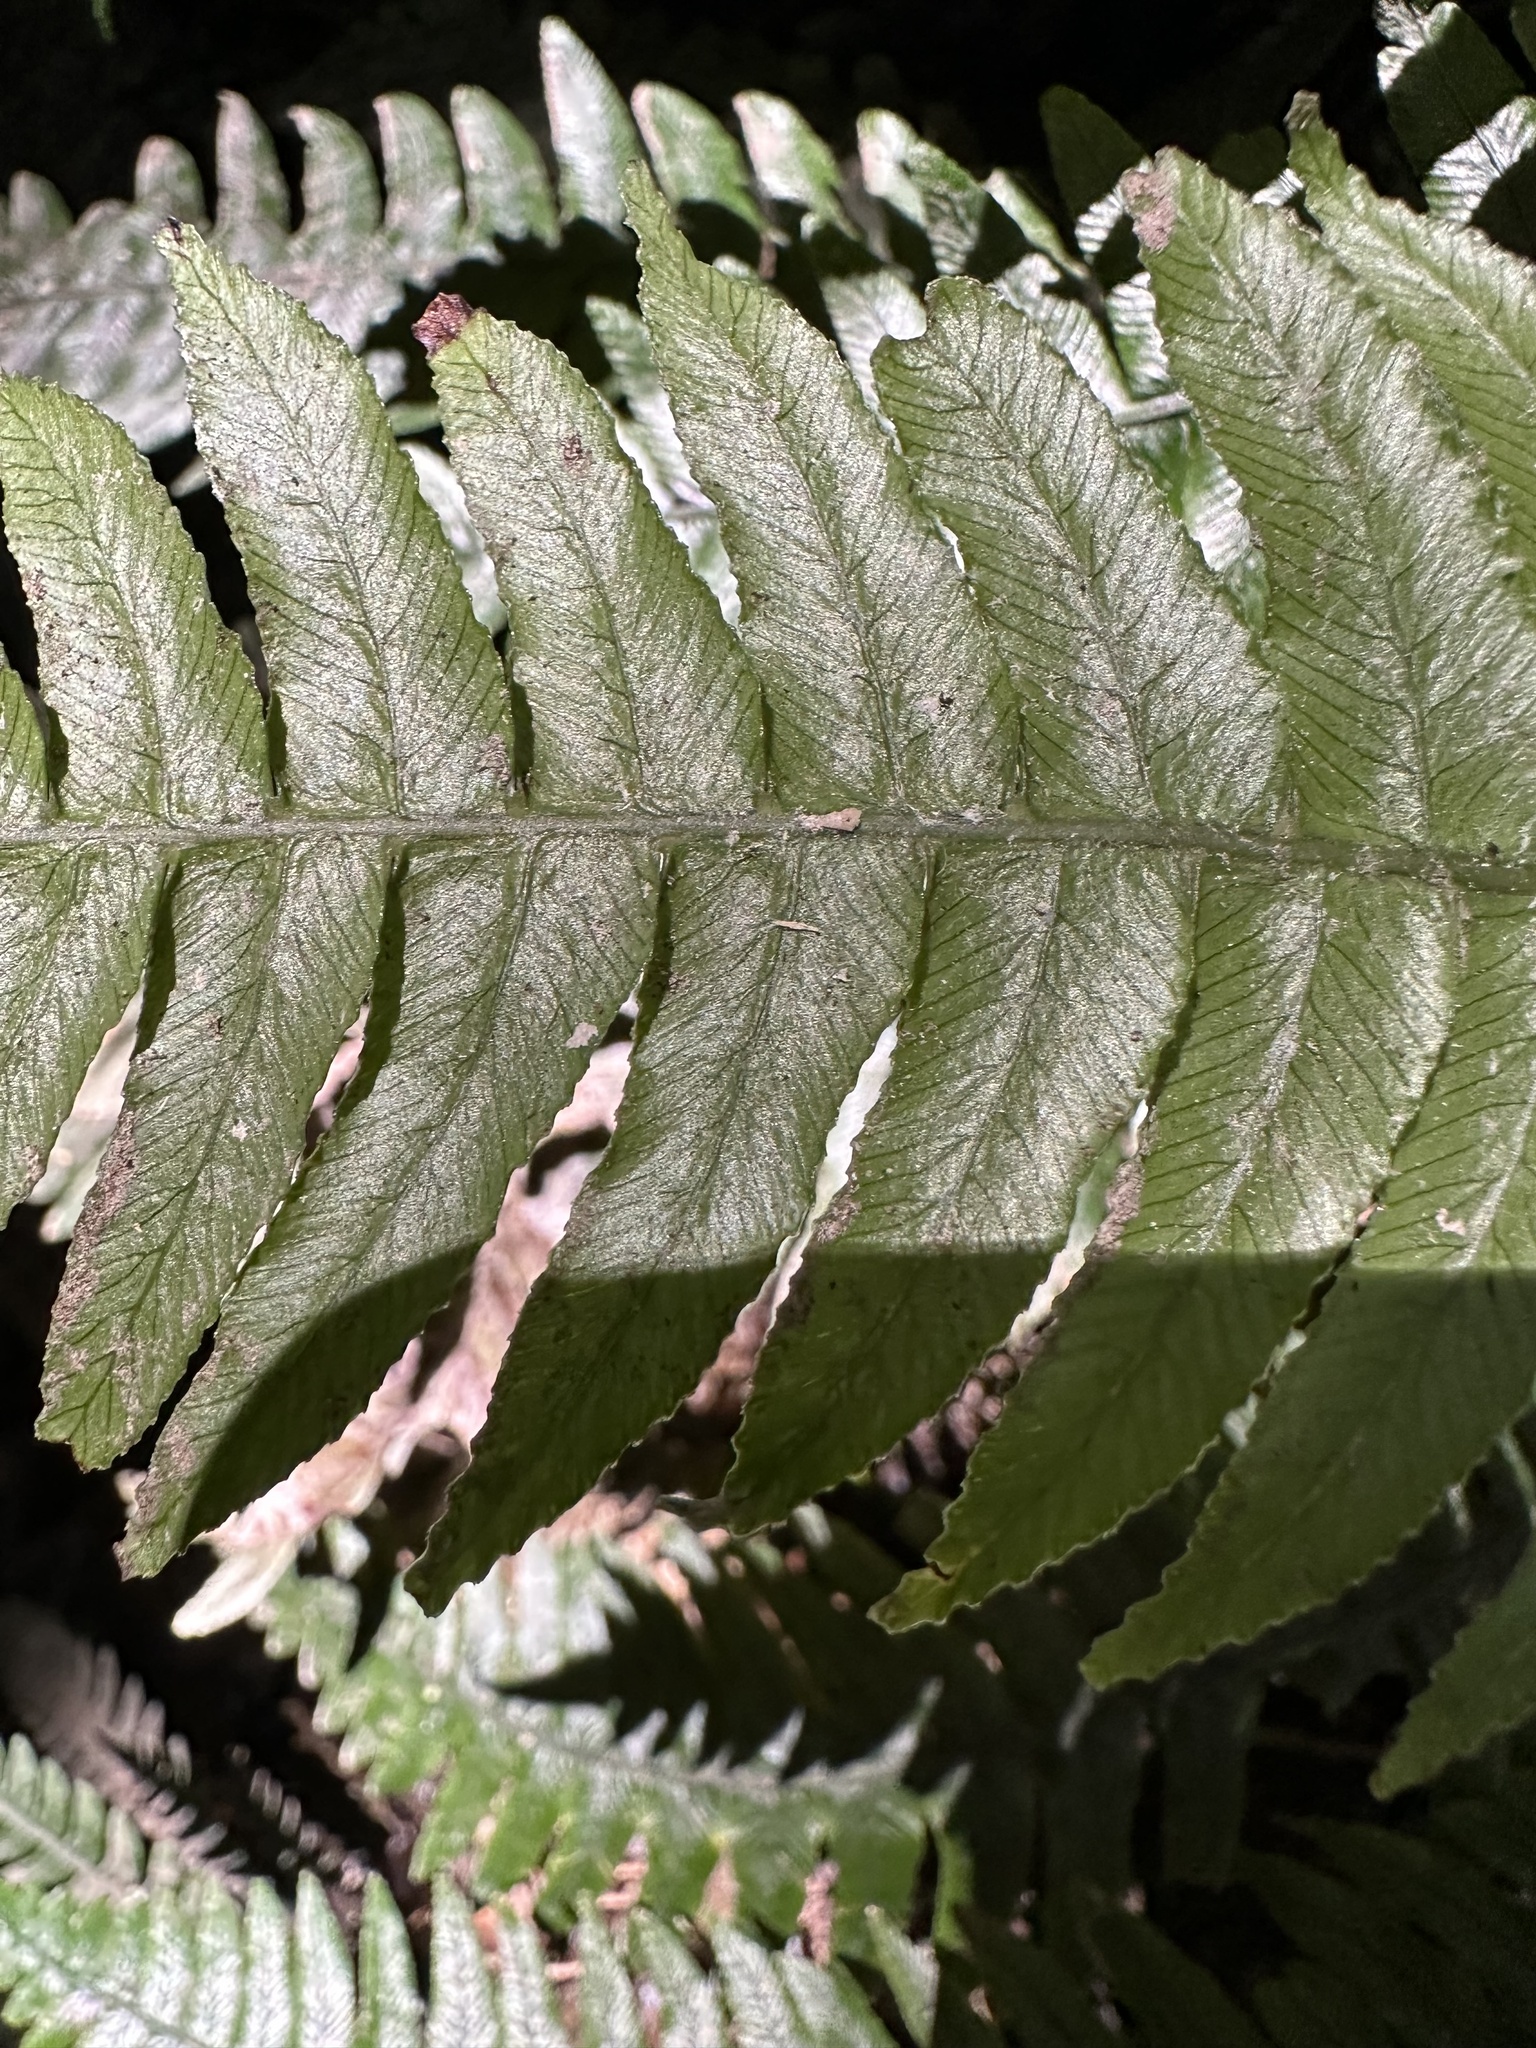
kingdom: Plantae
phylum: Tracheophyta
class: Polypodiopsida
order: Polypodiales
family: Blechnaceae
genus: Austroblechnum
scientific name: Austroblechnum lanceolatum
